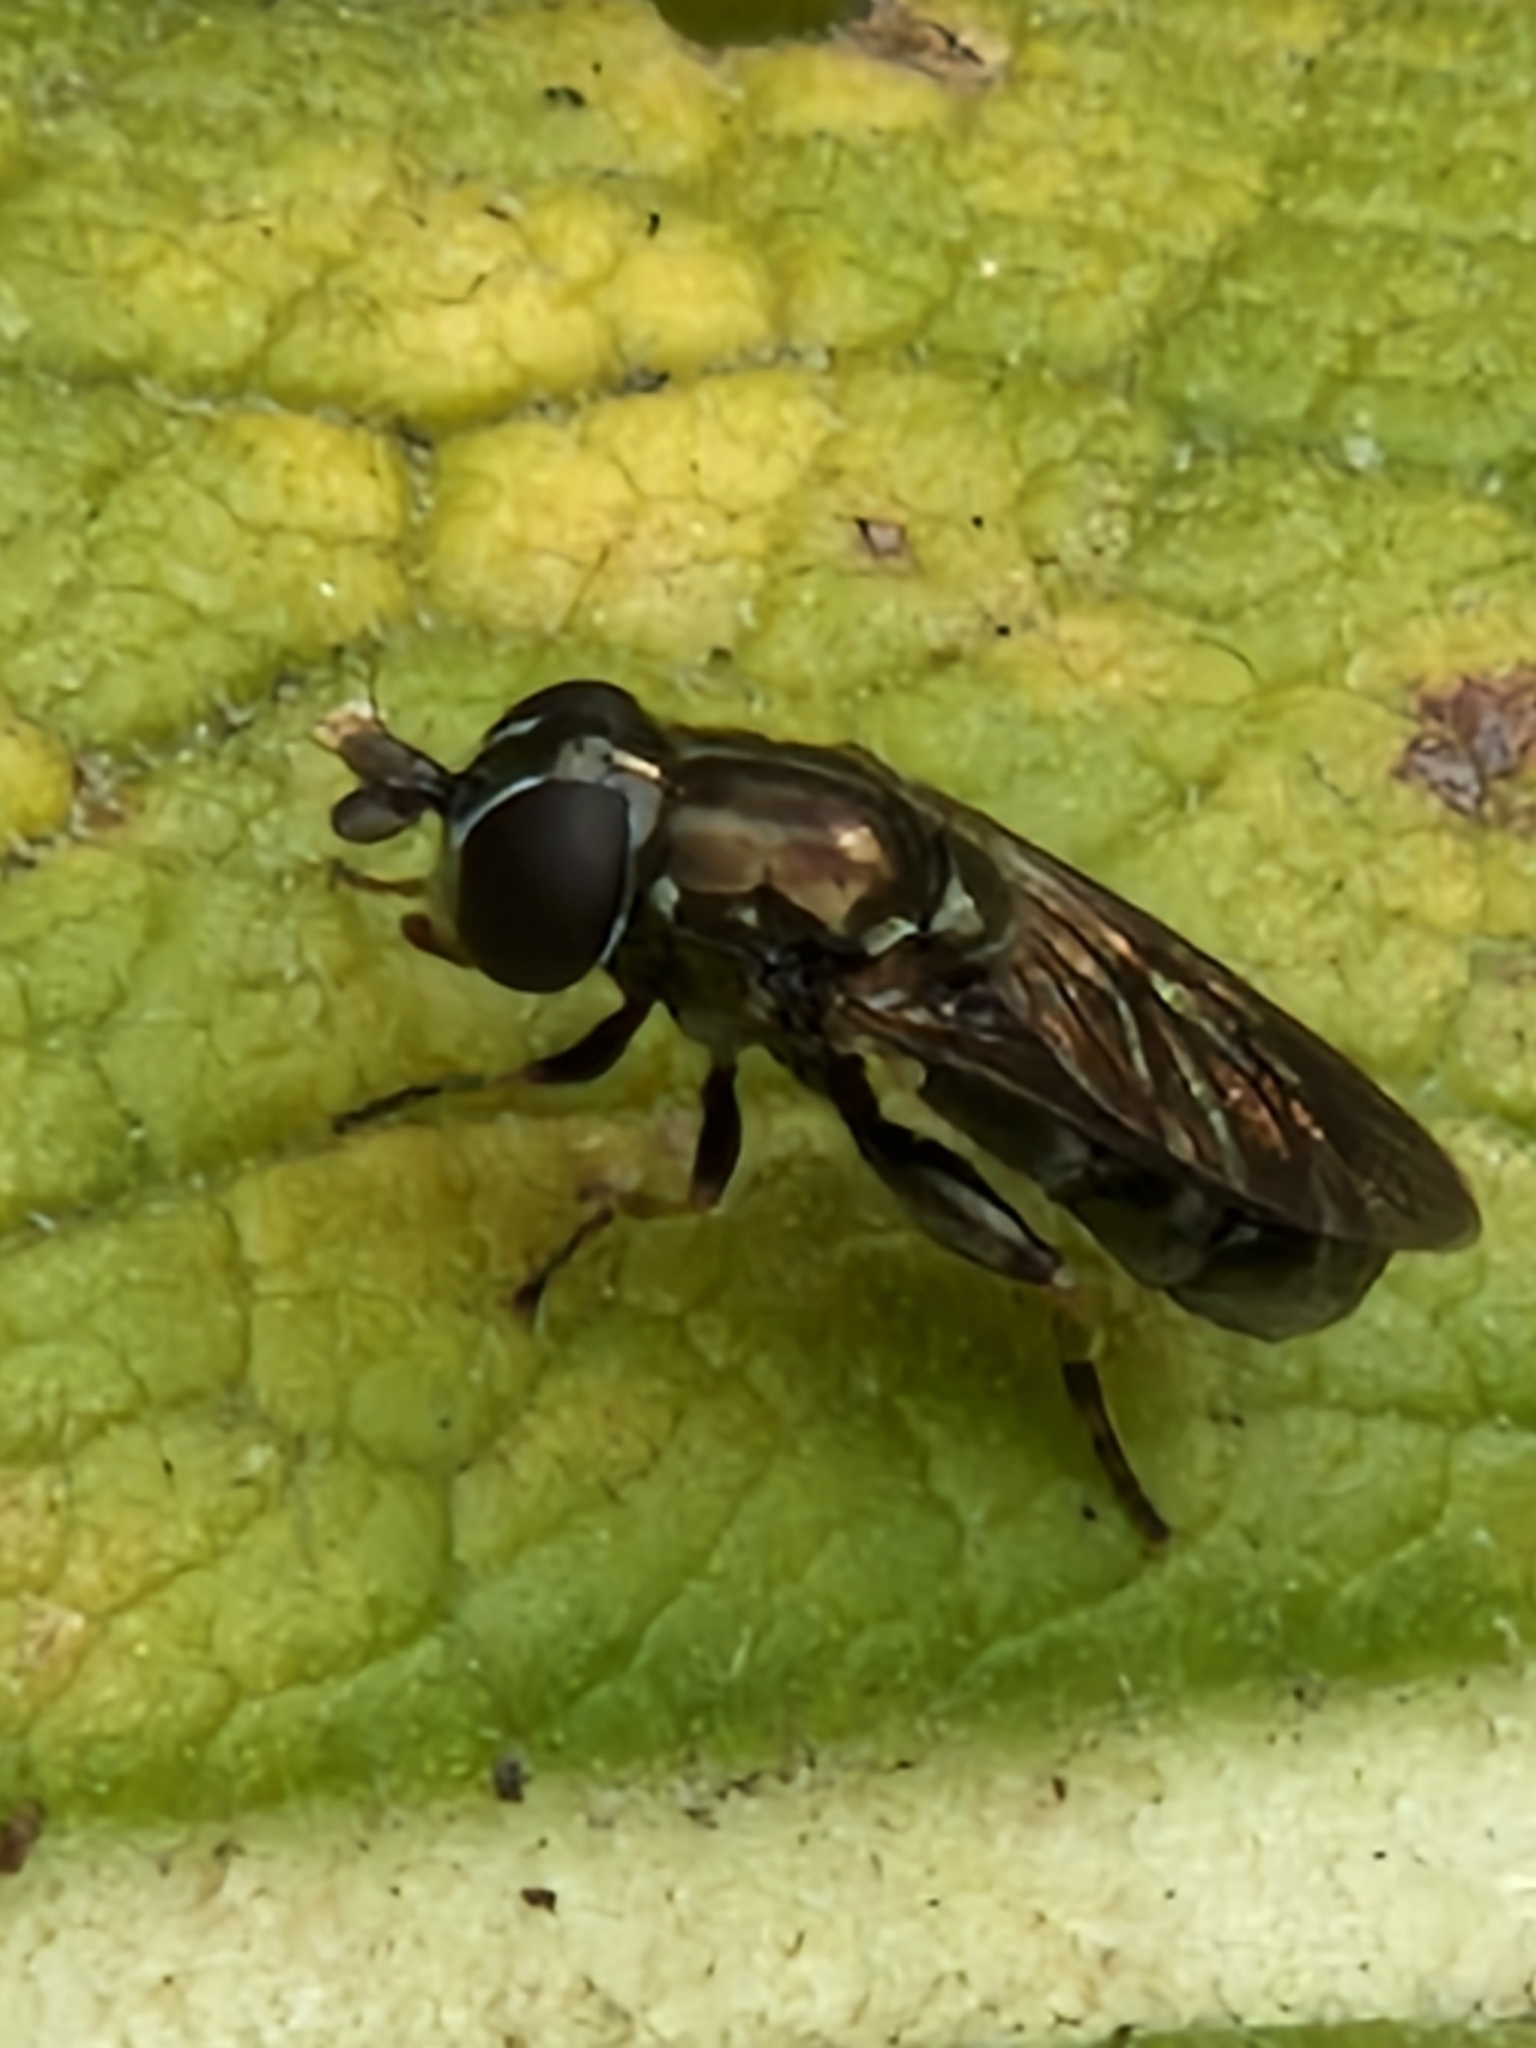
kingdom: Animalia
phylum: Arthropoda
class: Insecta
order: Diptera
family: Syrphidae
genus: Eumerus
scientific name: Eumerus
